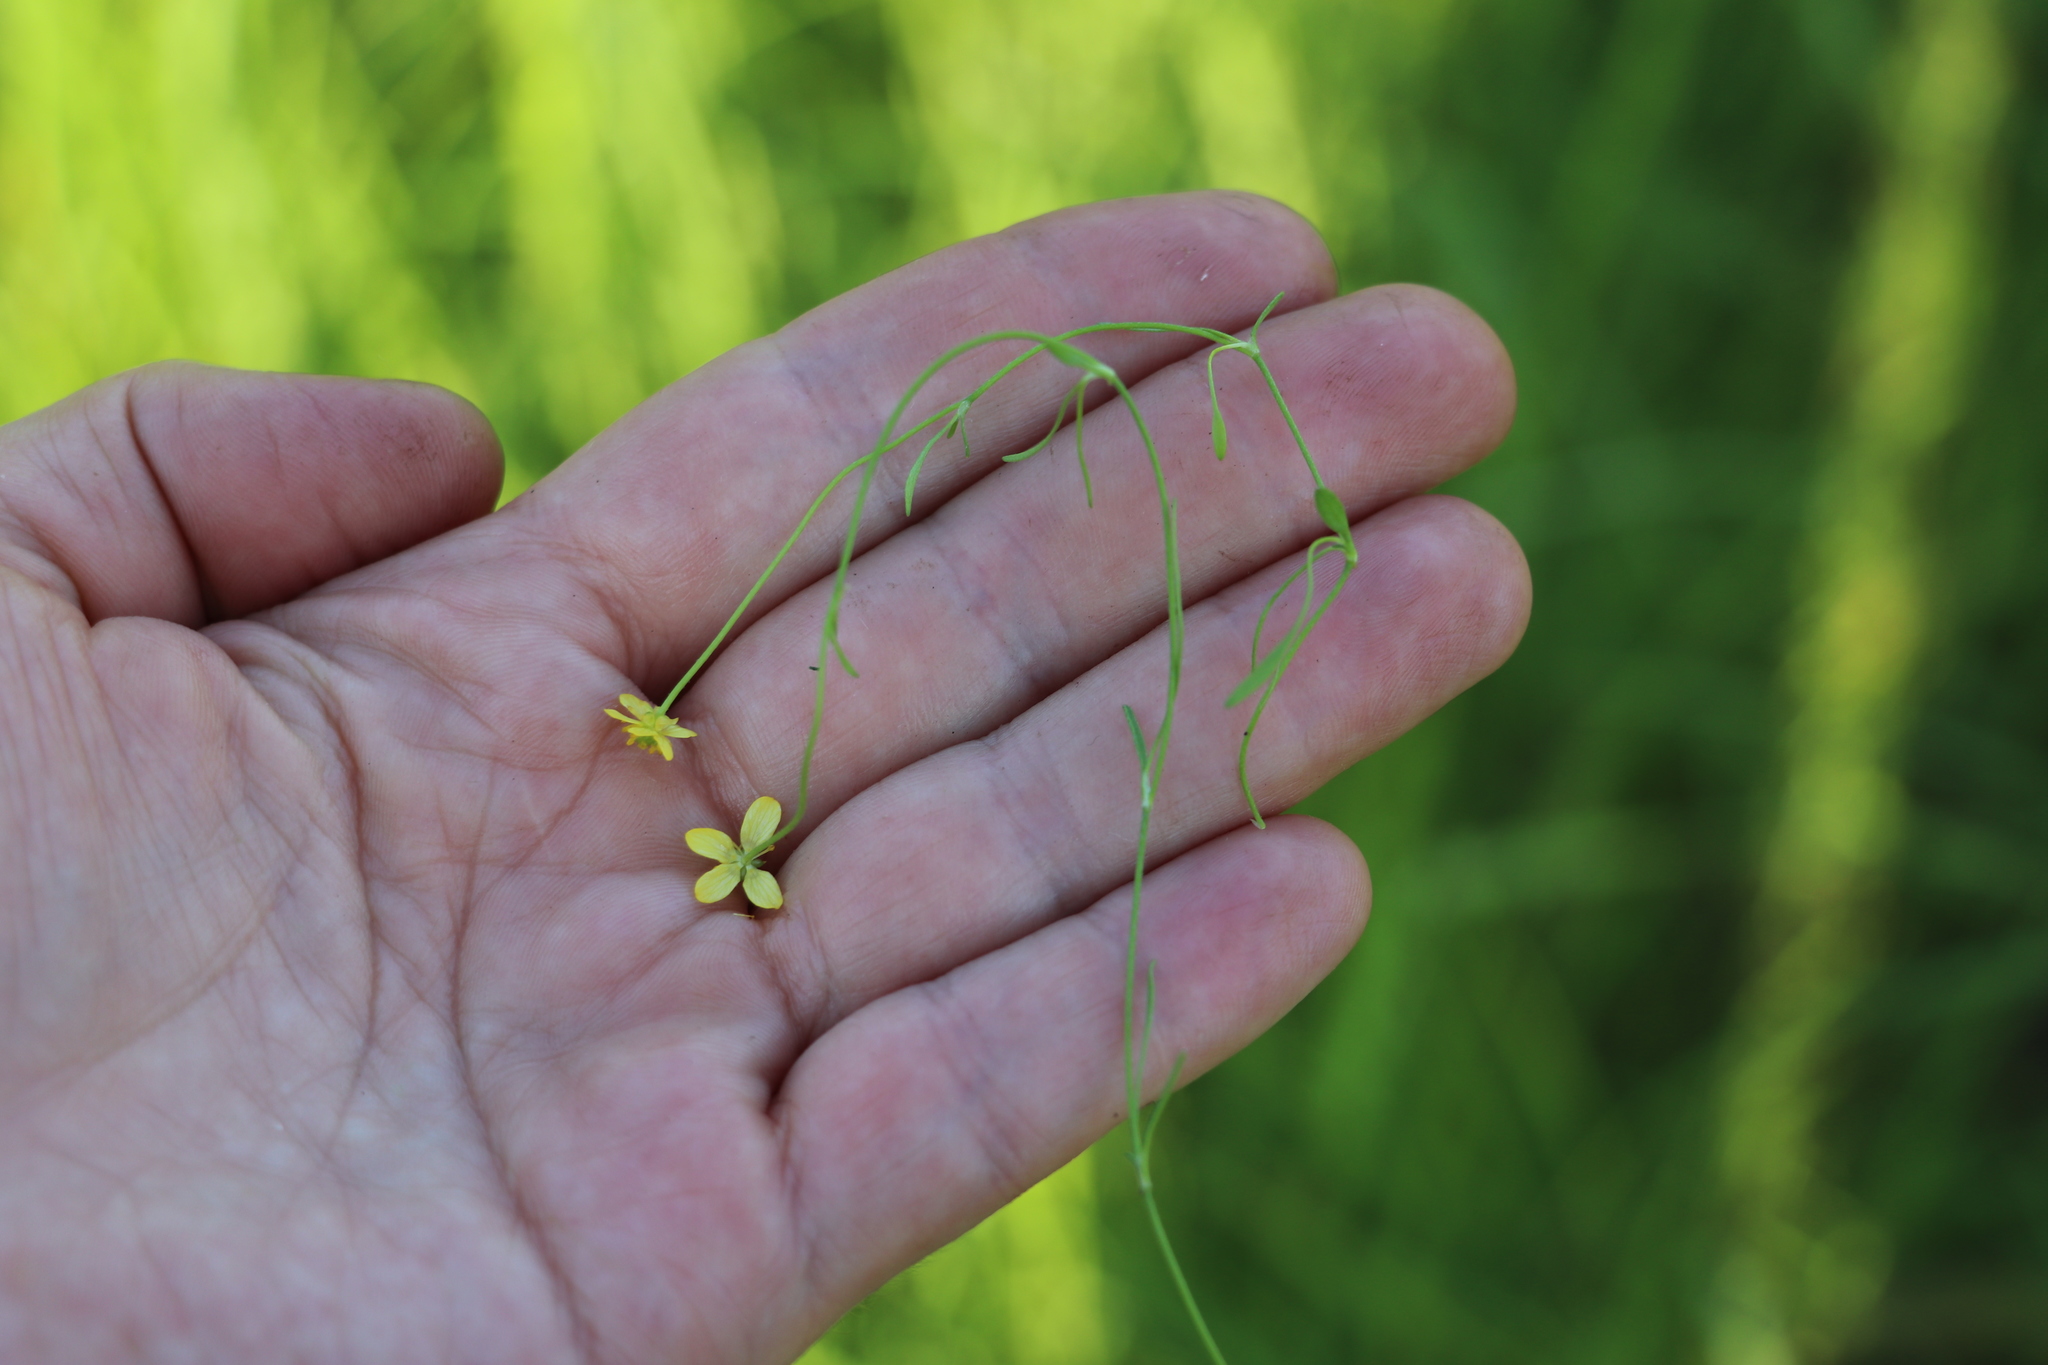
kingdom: Plantae
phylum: Tracheophyta
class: Magnoliopsida
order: Ranunculales
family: Ranunculaceae
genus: Ranunculus
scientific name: Ranunculus reptans
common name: Creeping spearwort
